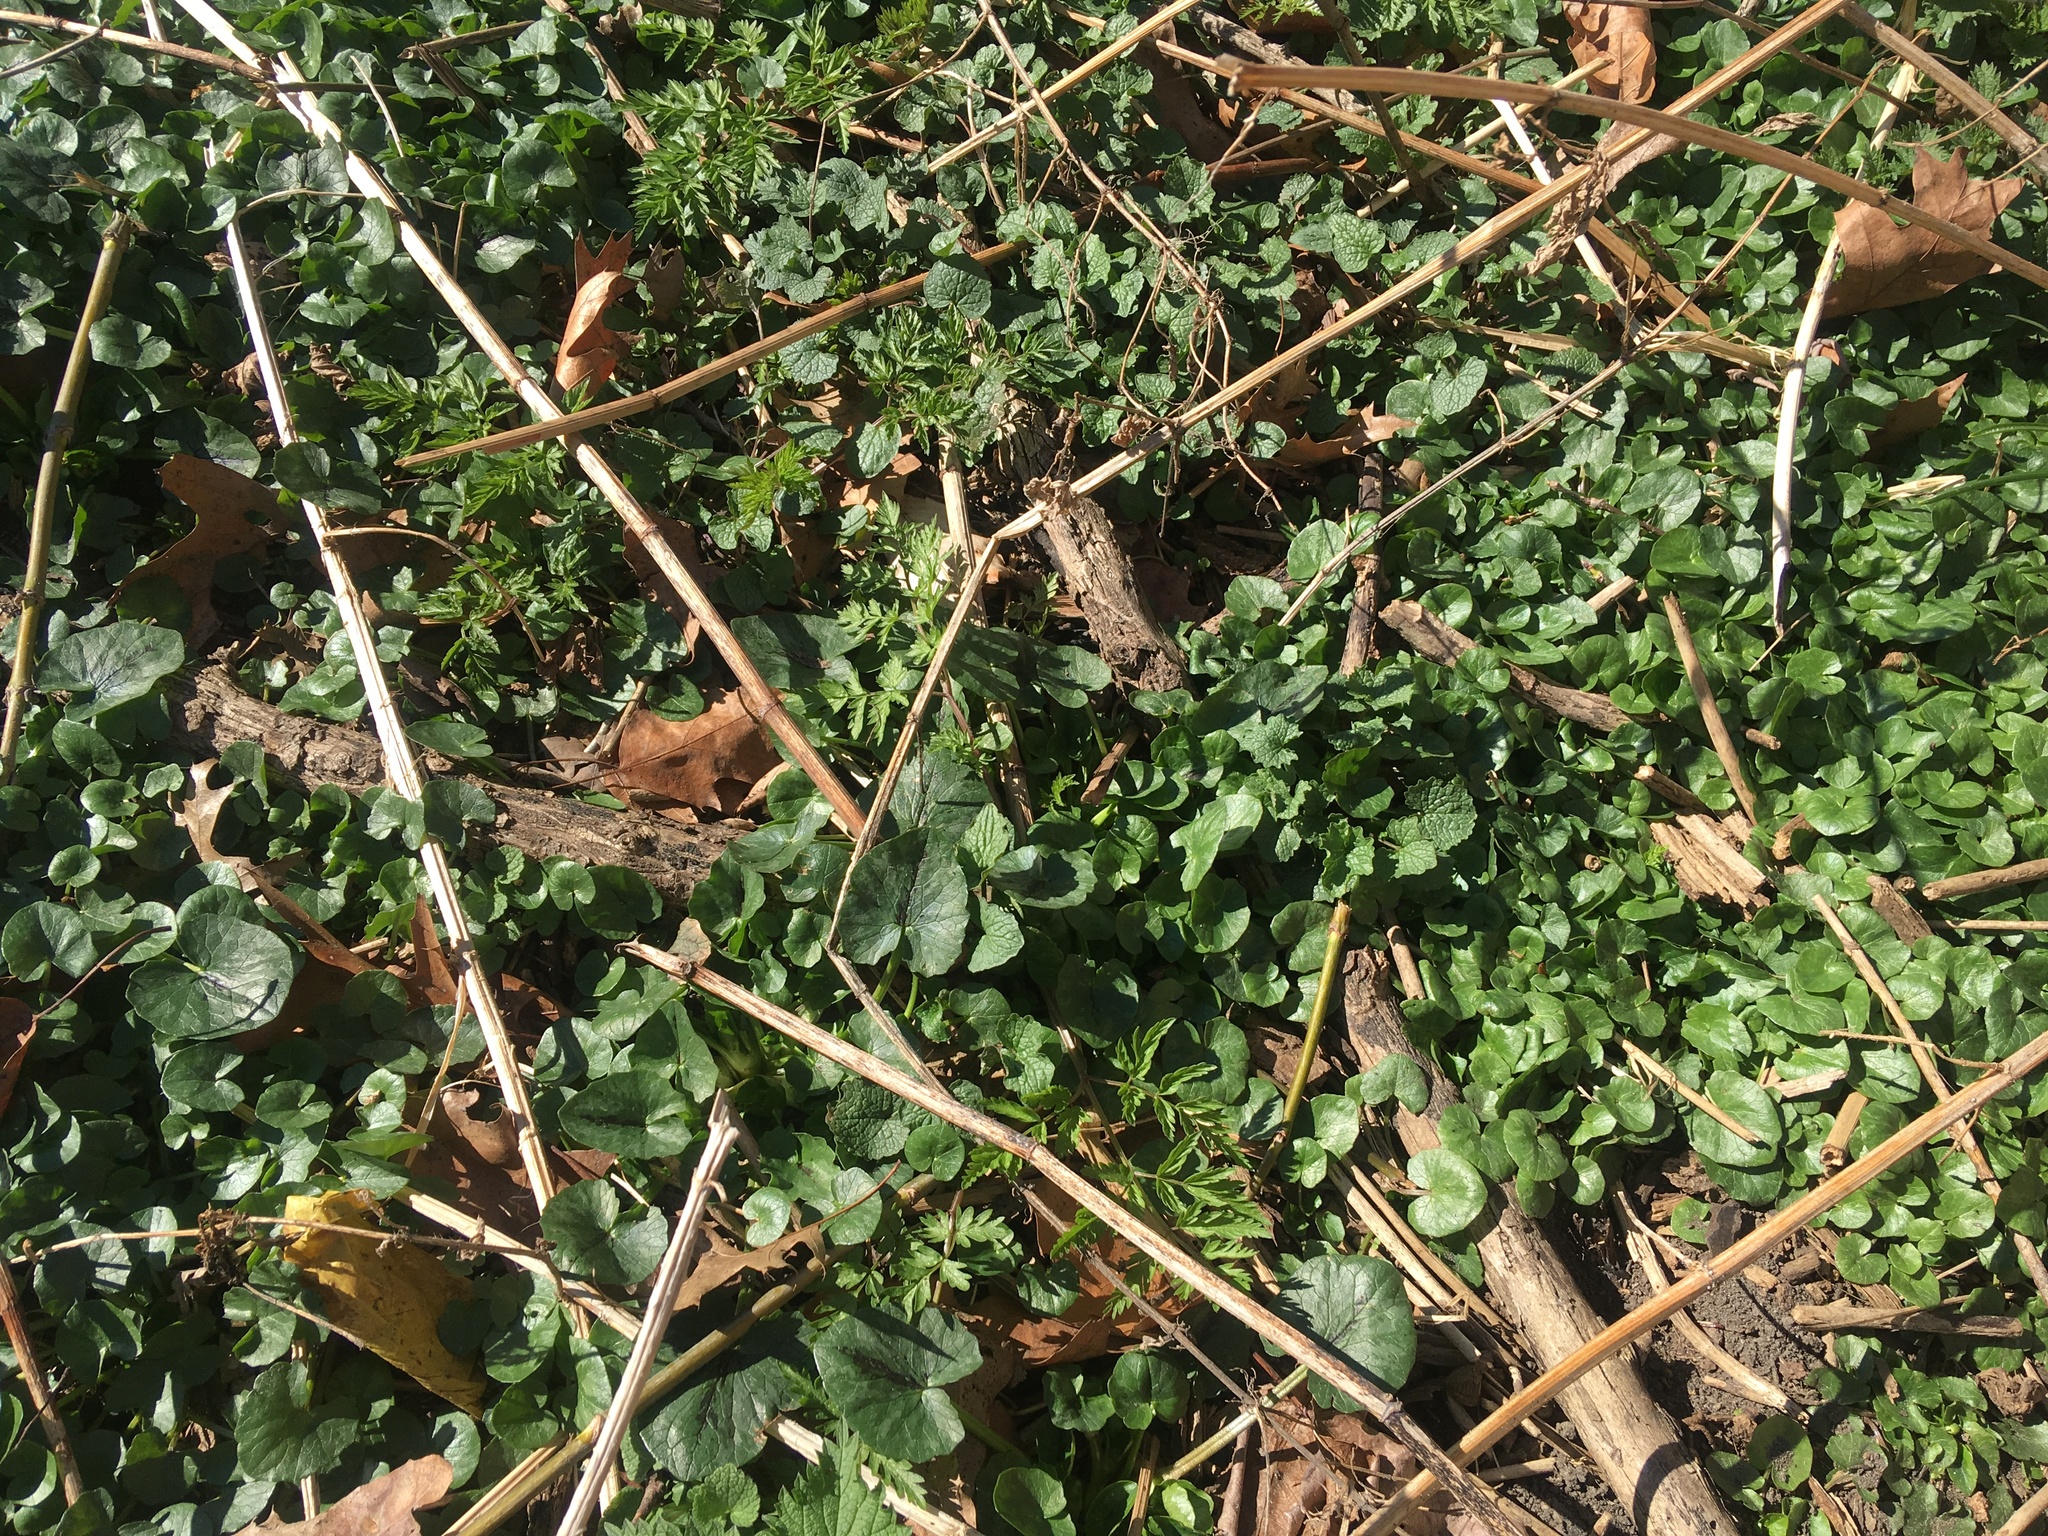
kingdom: Plantae
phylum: Tracheophyta
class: Magnoliopsida
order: Ranunculales
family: Ranunculaceae
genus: Ficaria
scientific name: Ficaria verna
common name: Lesser celandine
